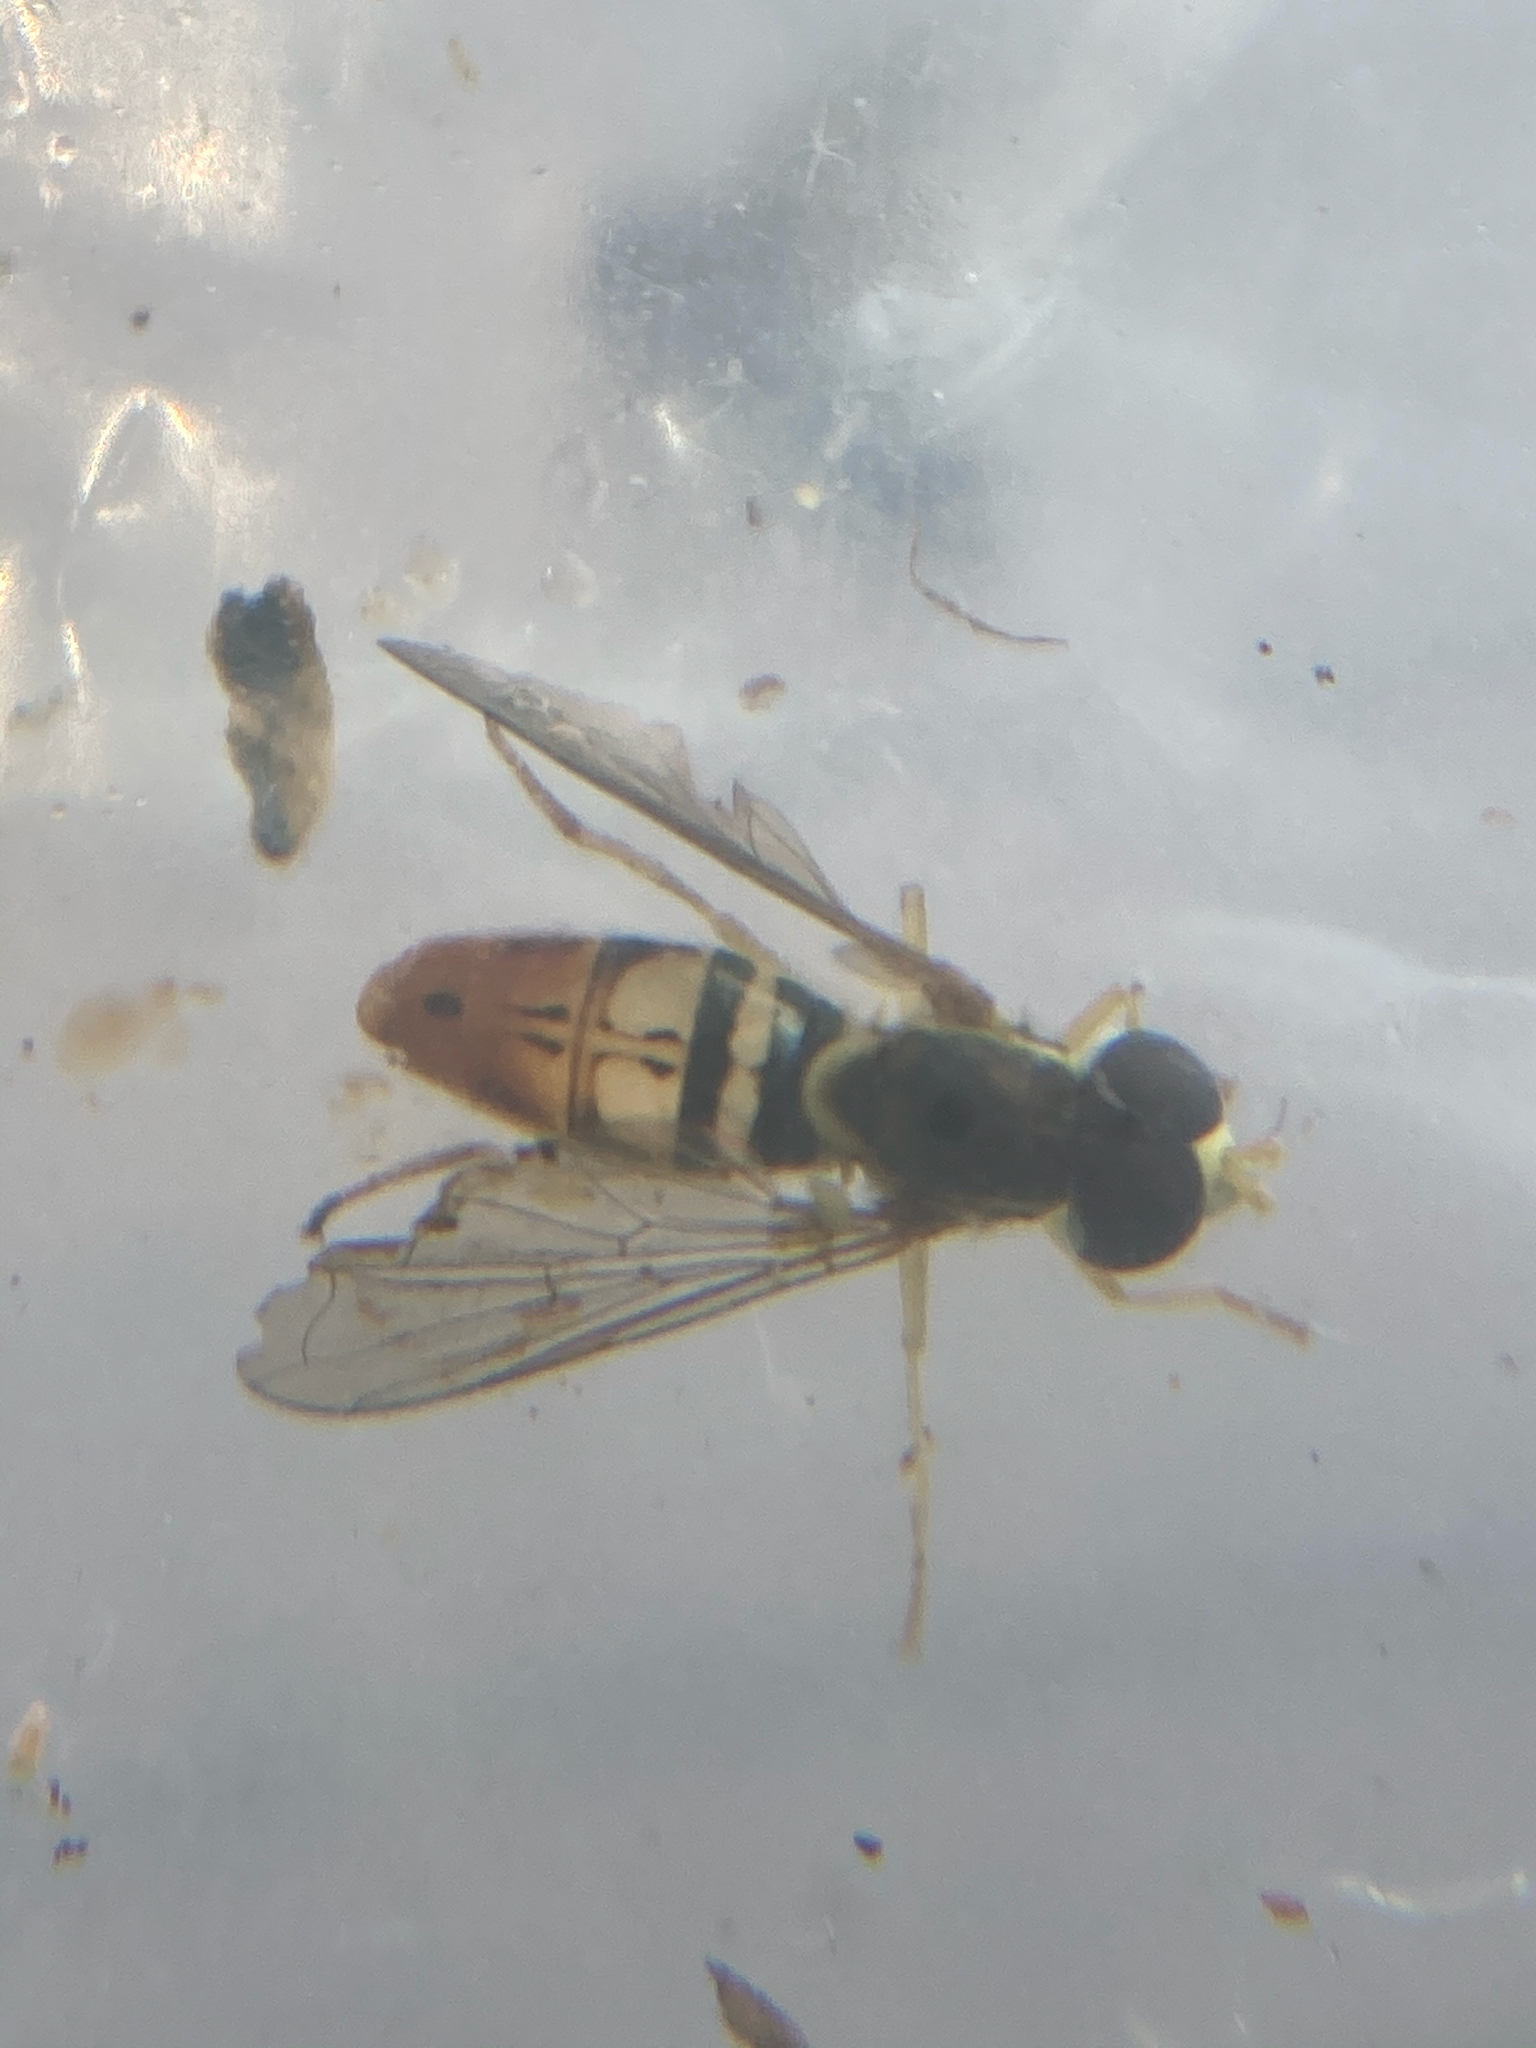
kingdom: Animalia
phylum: Arthropoda
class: Insecta
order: Diptera
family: Syrphidae
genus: Toxomerus
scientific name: Toxomerus marginatus
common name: Syrphid fly
